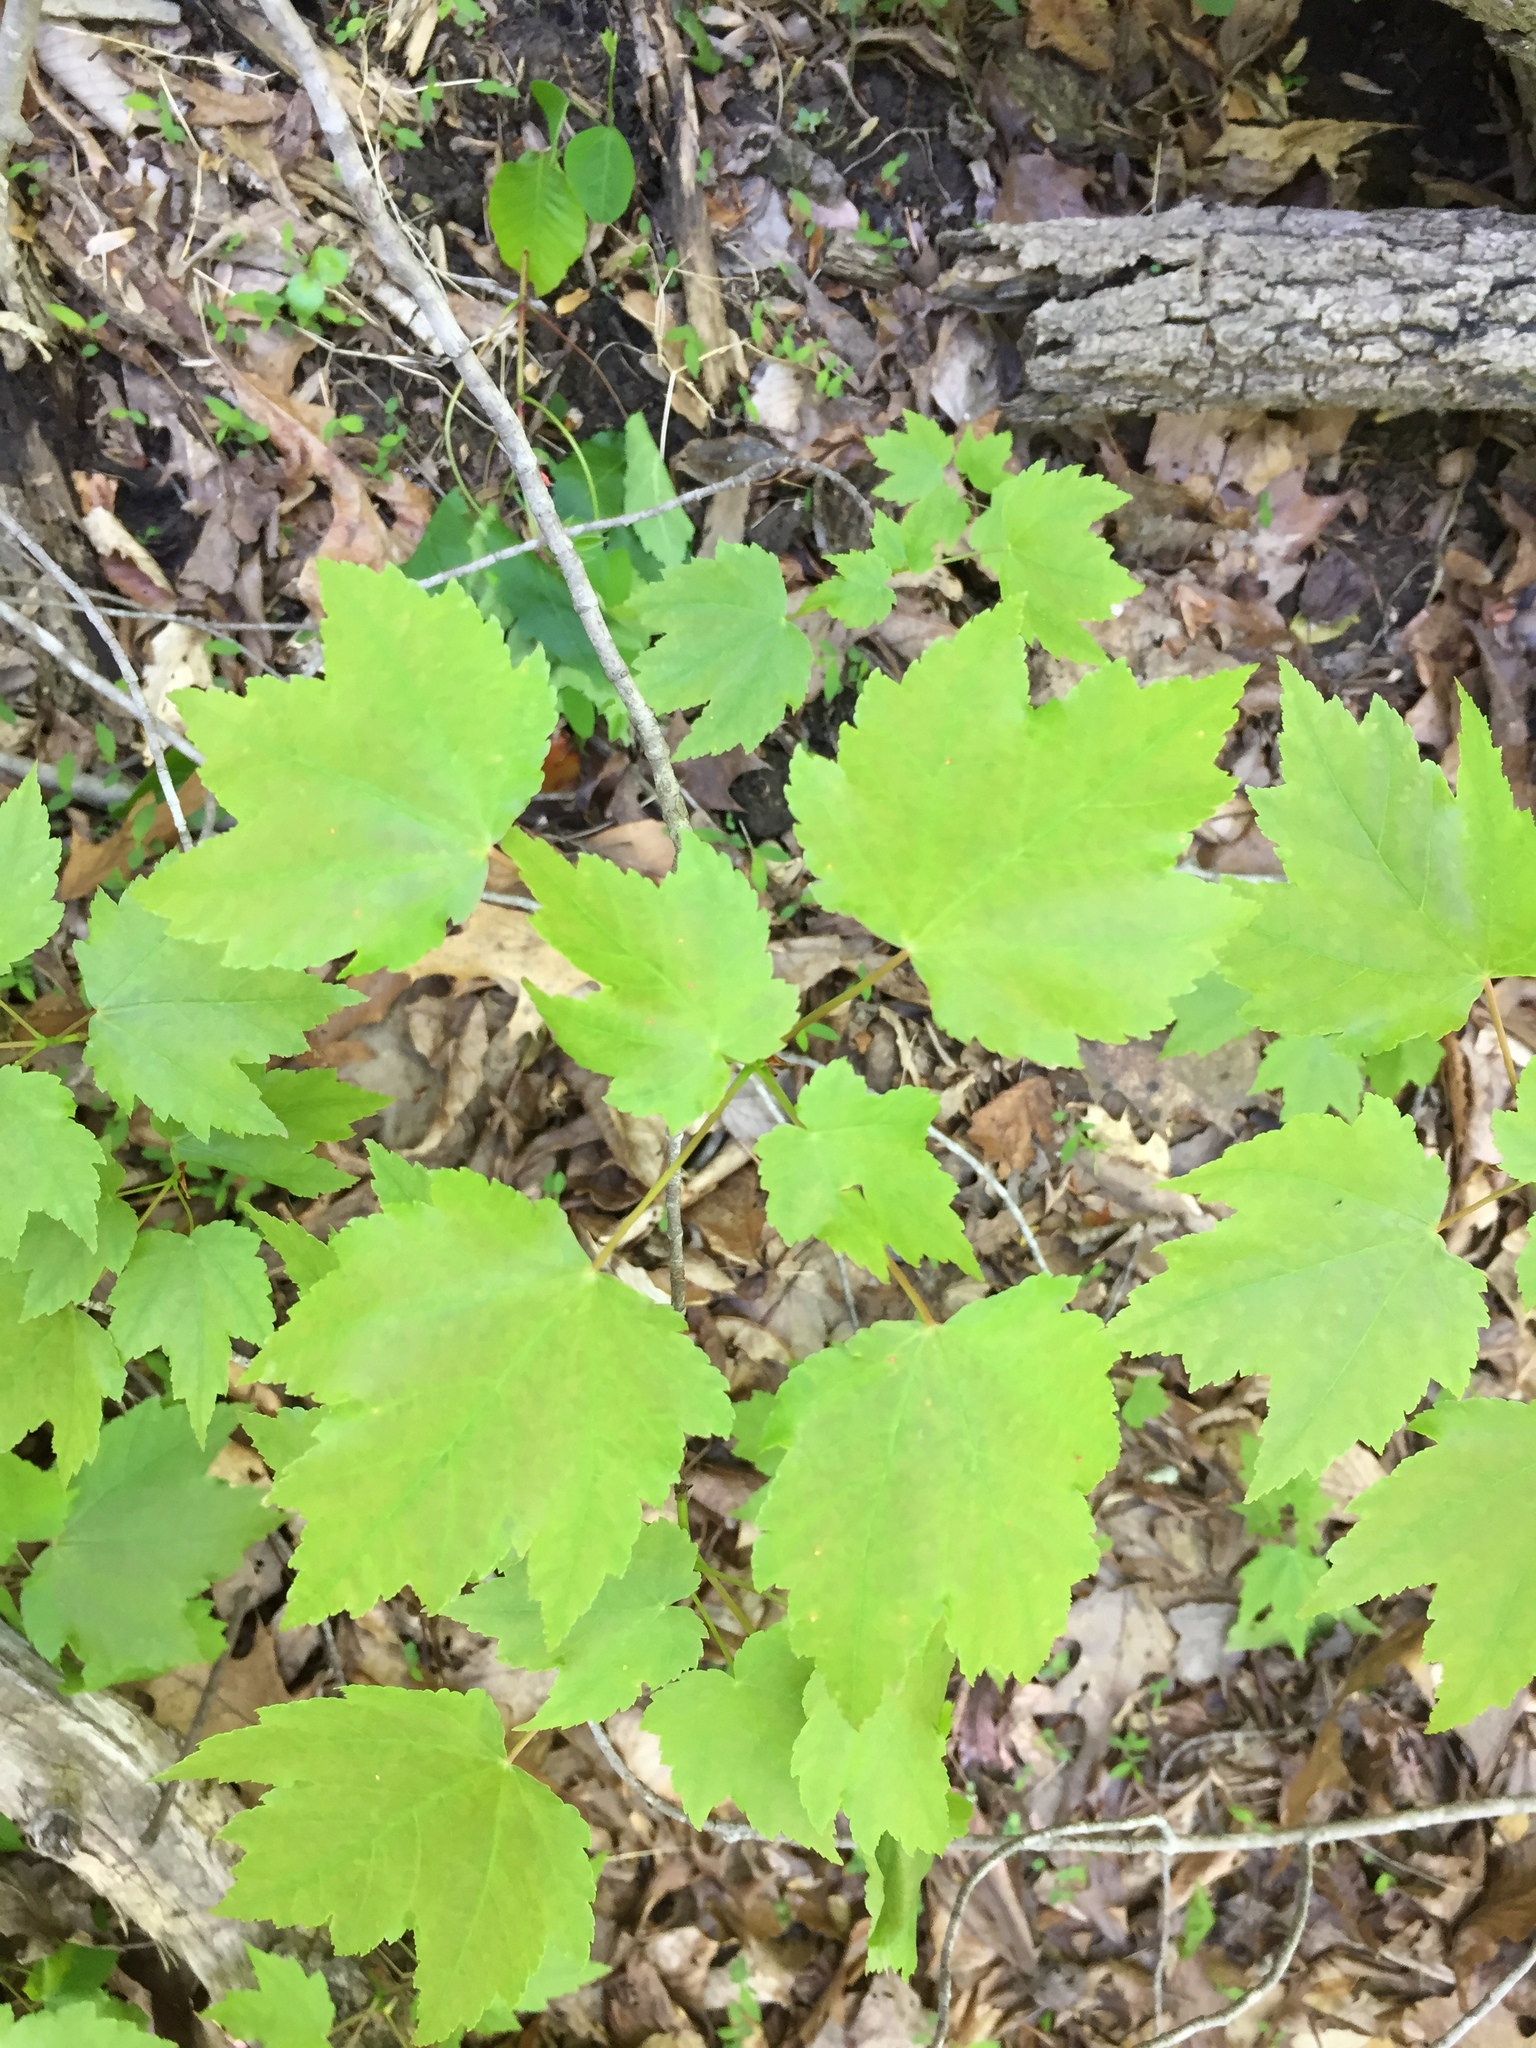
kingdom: Plantae
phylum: Tracheophyta
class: Magnoliopsida
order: Sapindales
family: Sapindaceae
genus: Acer
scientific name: Acer rubrum
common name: Red maple
